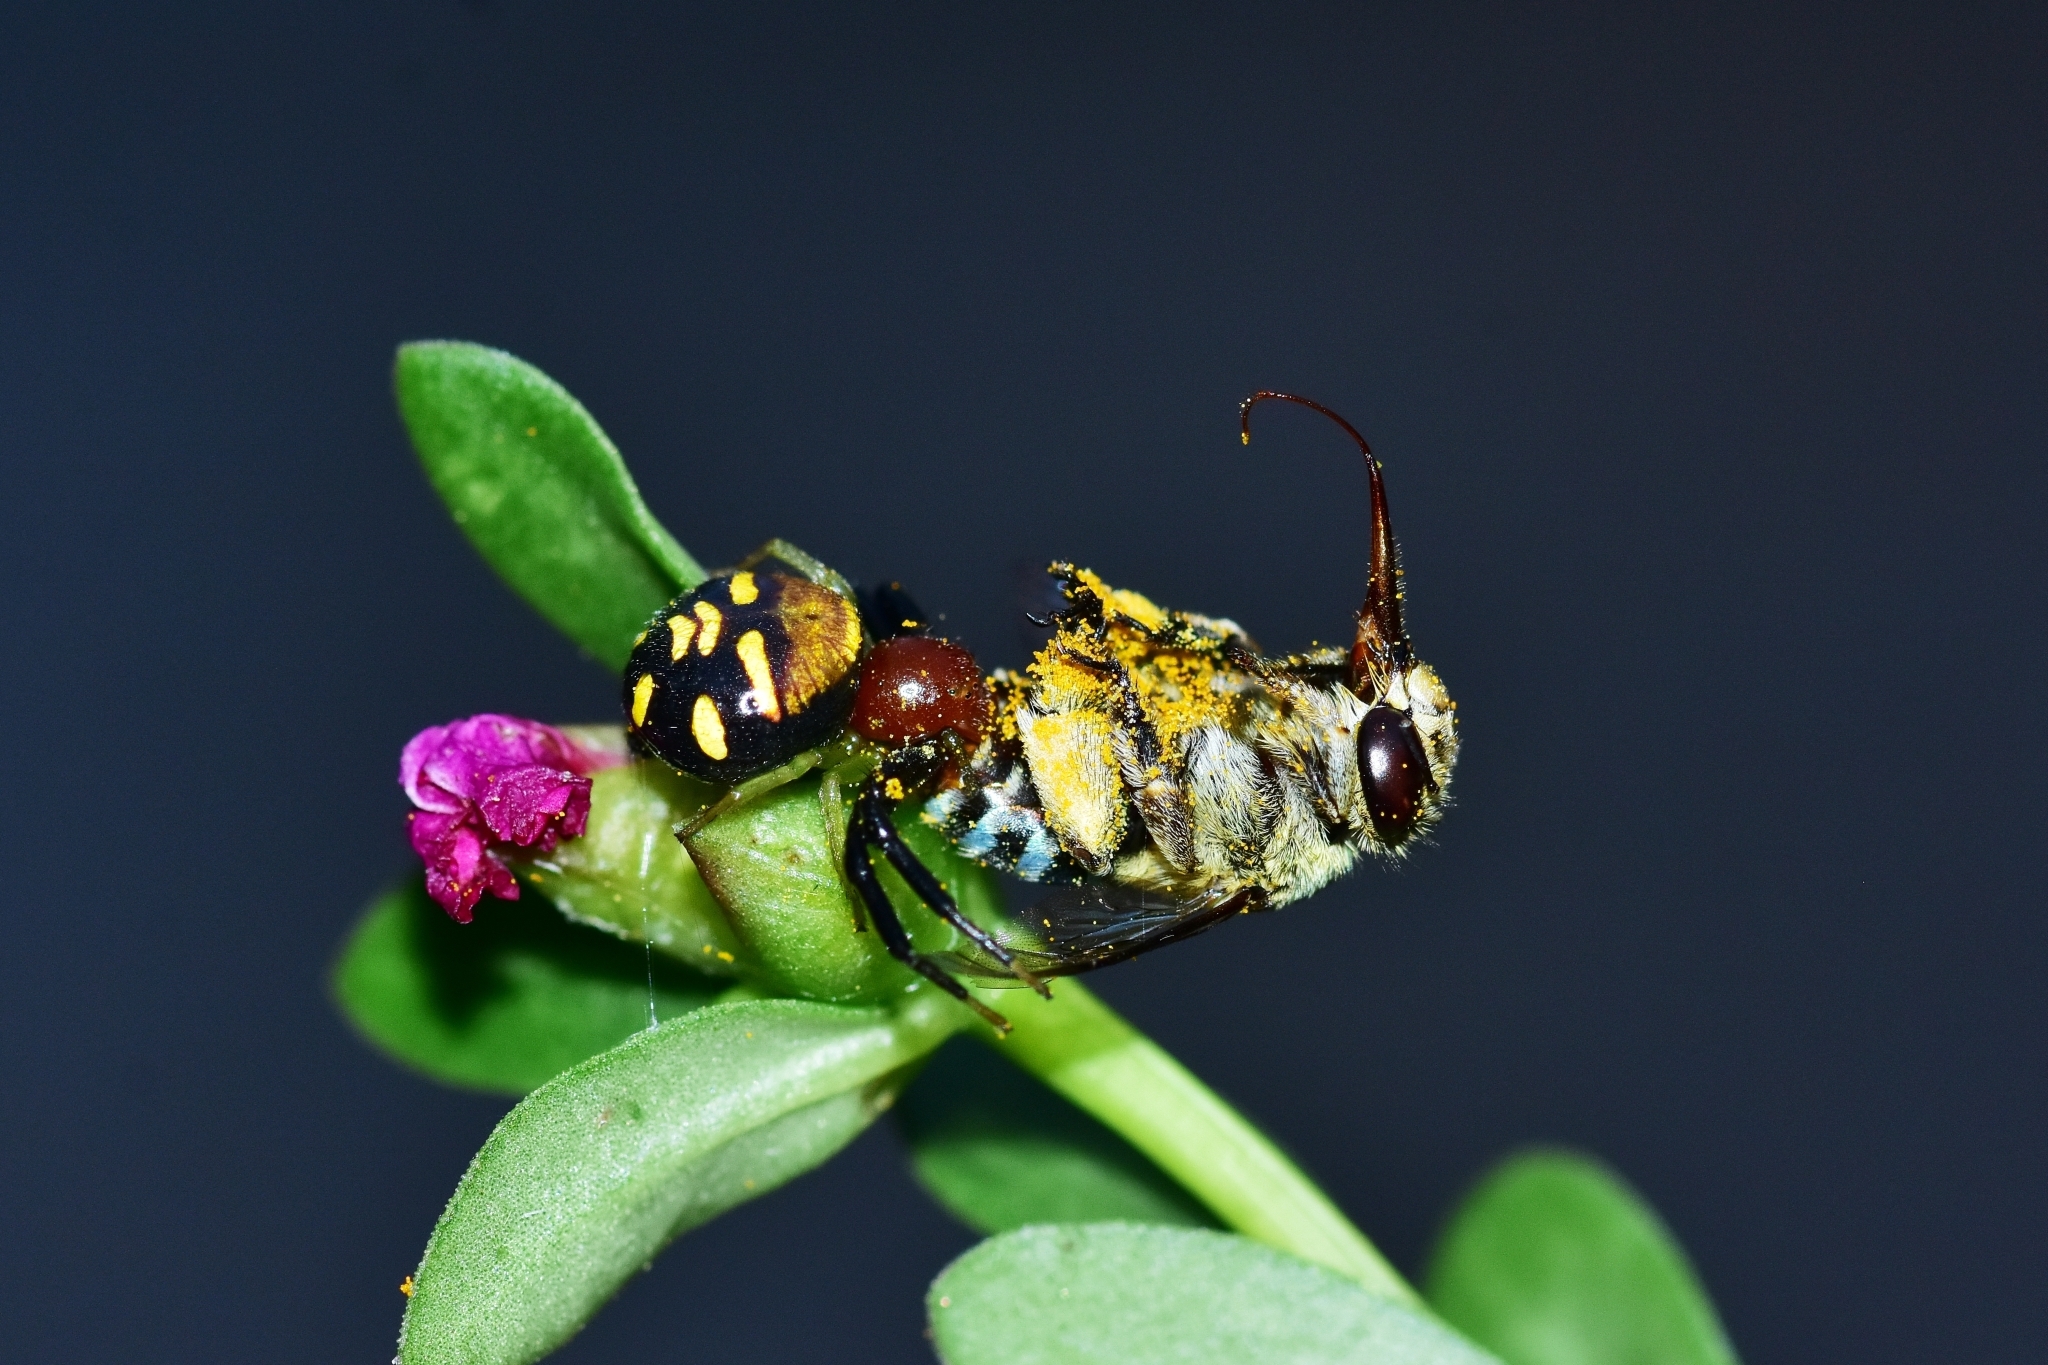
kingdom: Animalia
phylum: Arthropoda
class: Arachnida
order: Araneae
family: Thomisidae
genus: Camaricus
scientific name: Camaricus rinkae
